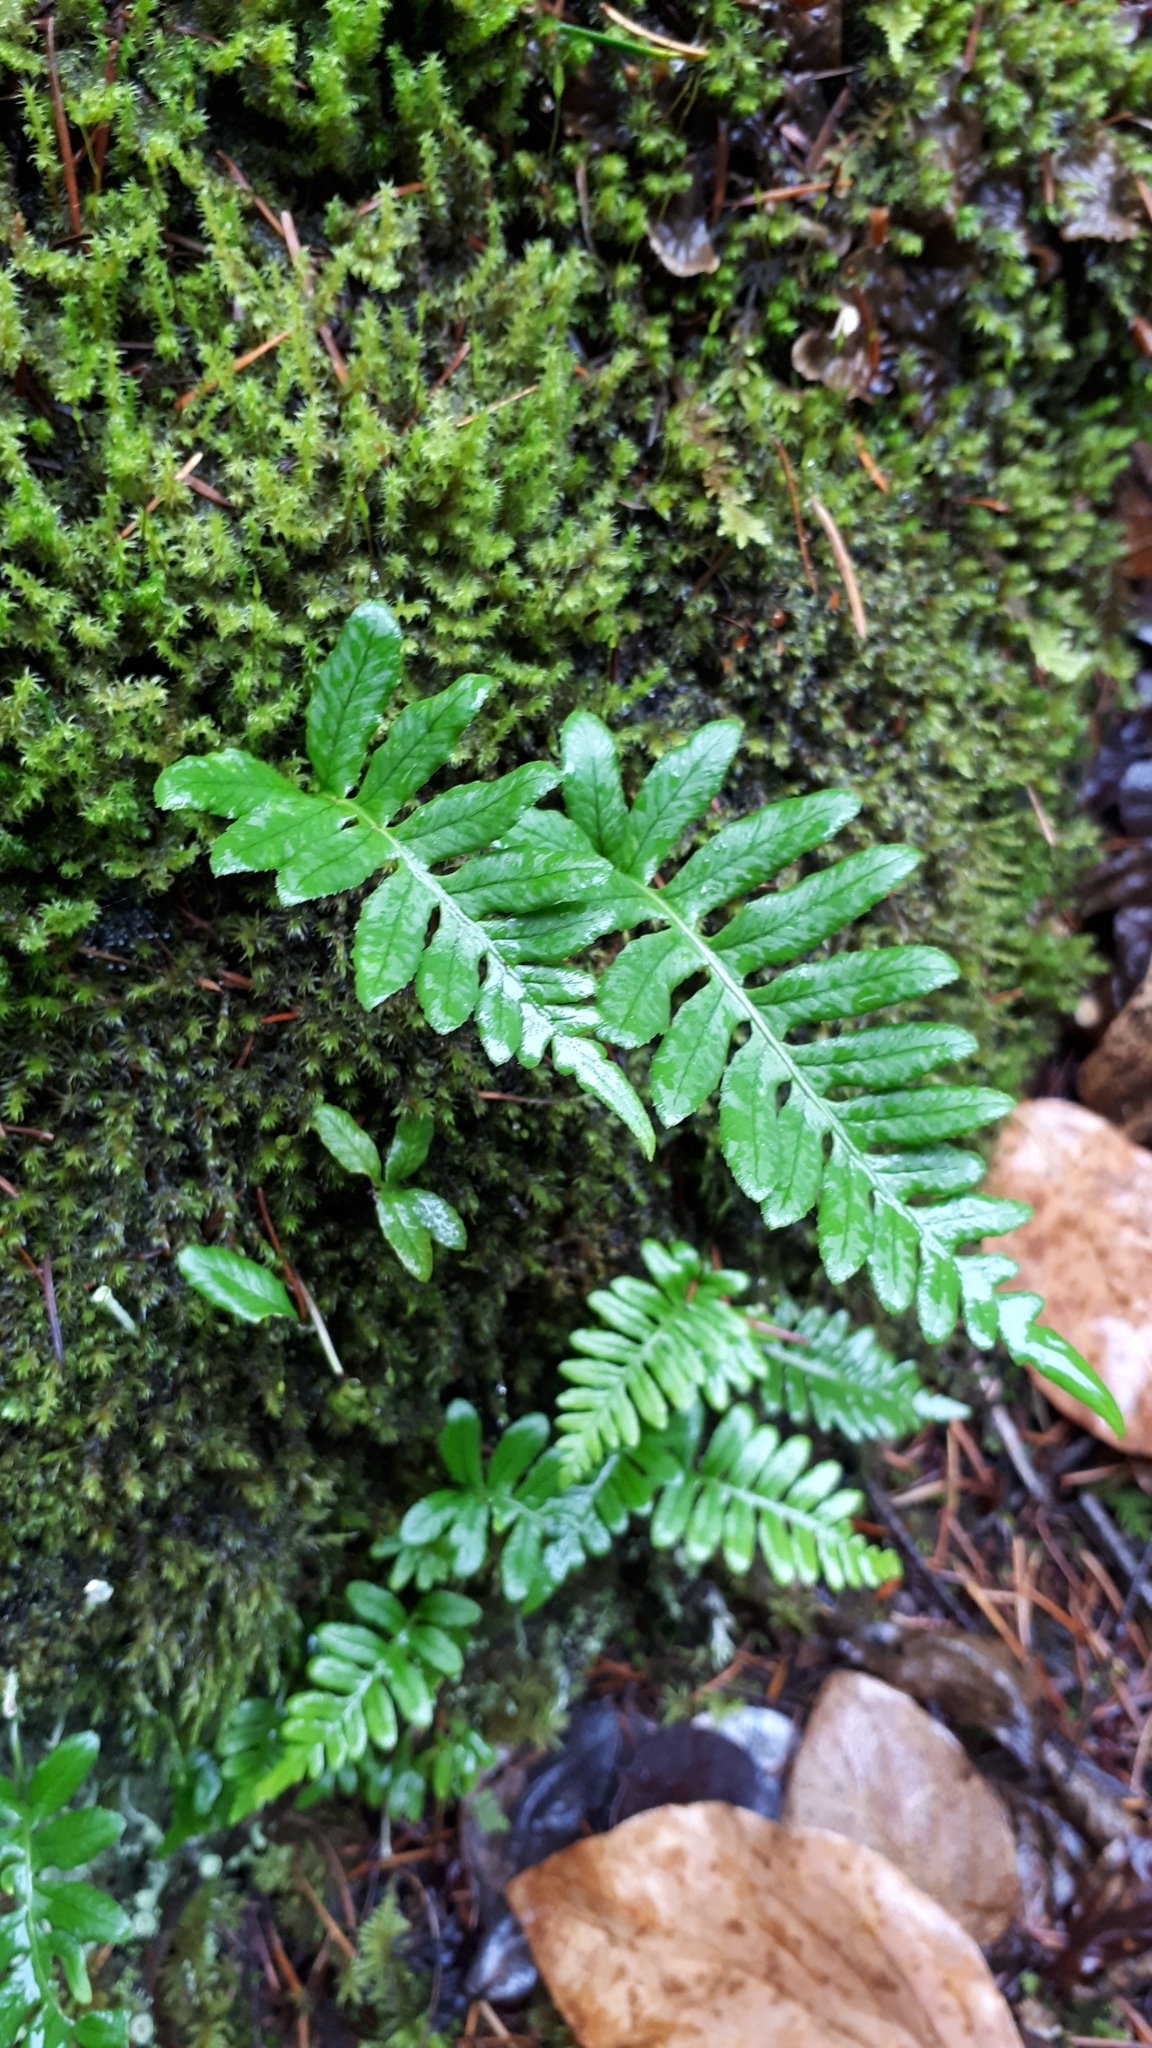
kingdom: Plantae
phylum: Tracheophyta
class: Polypodiopsida
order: Polypodiales
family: Polypodiaceae
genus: Polypodium
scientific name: Polypodium glycyrrhiza
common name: Licorice fern
